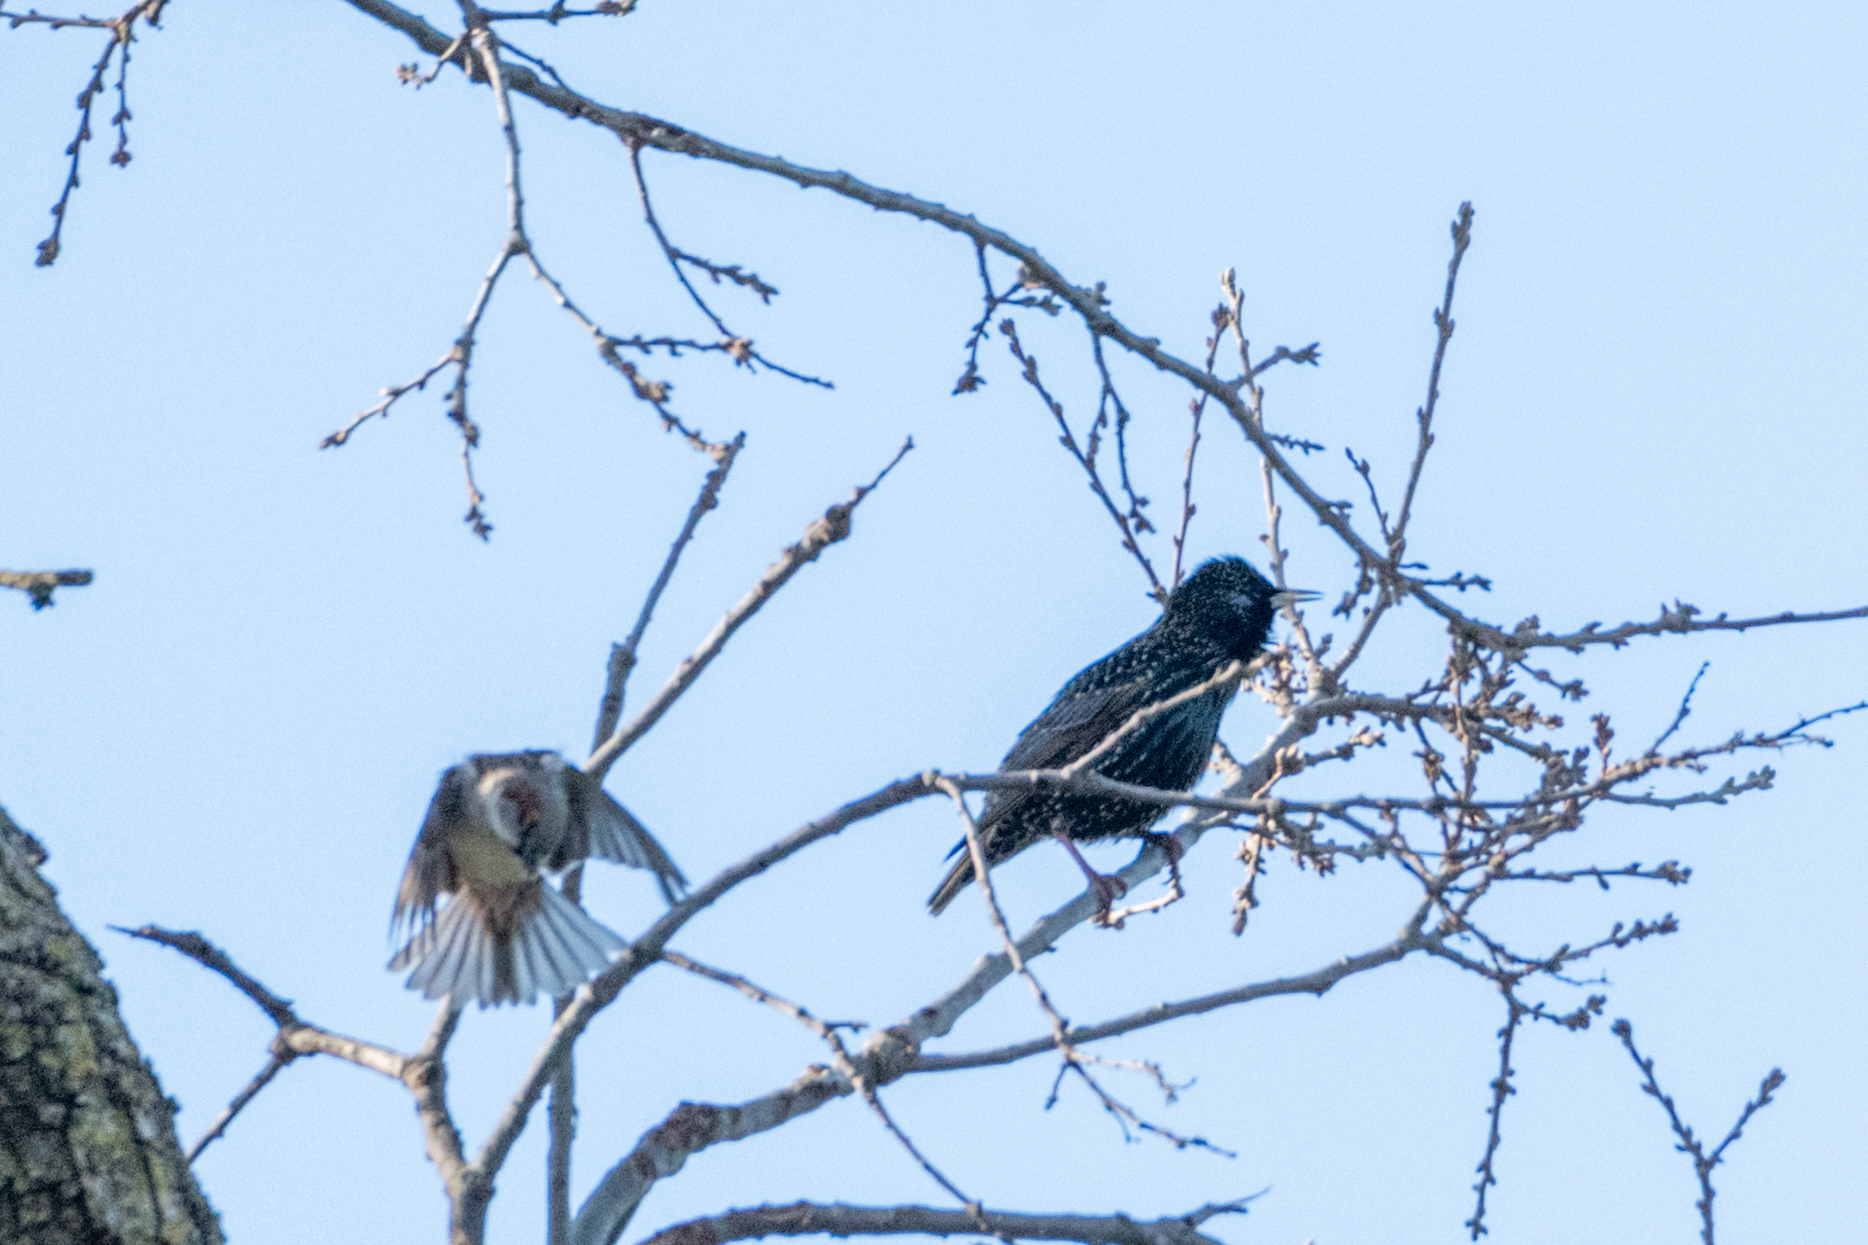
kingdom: Animalia
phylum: Chordata
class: Aves
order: Passeriformes
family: Sturnidae
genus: Sturnus
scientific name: Sturnus vulgaris
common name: Common starling
